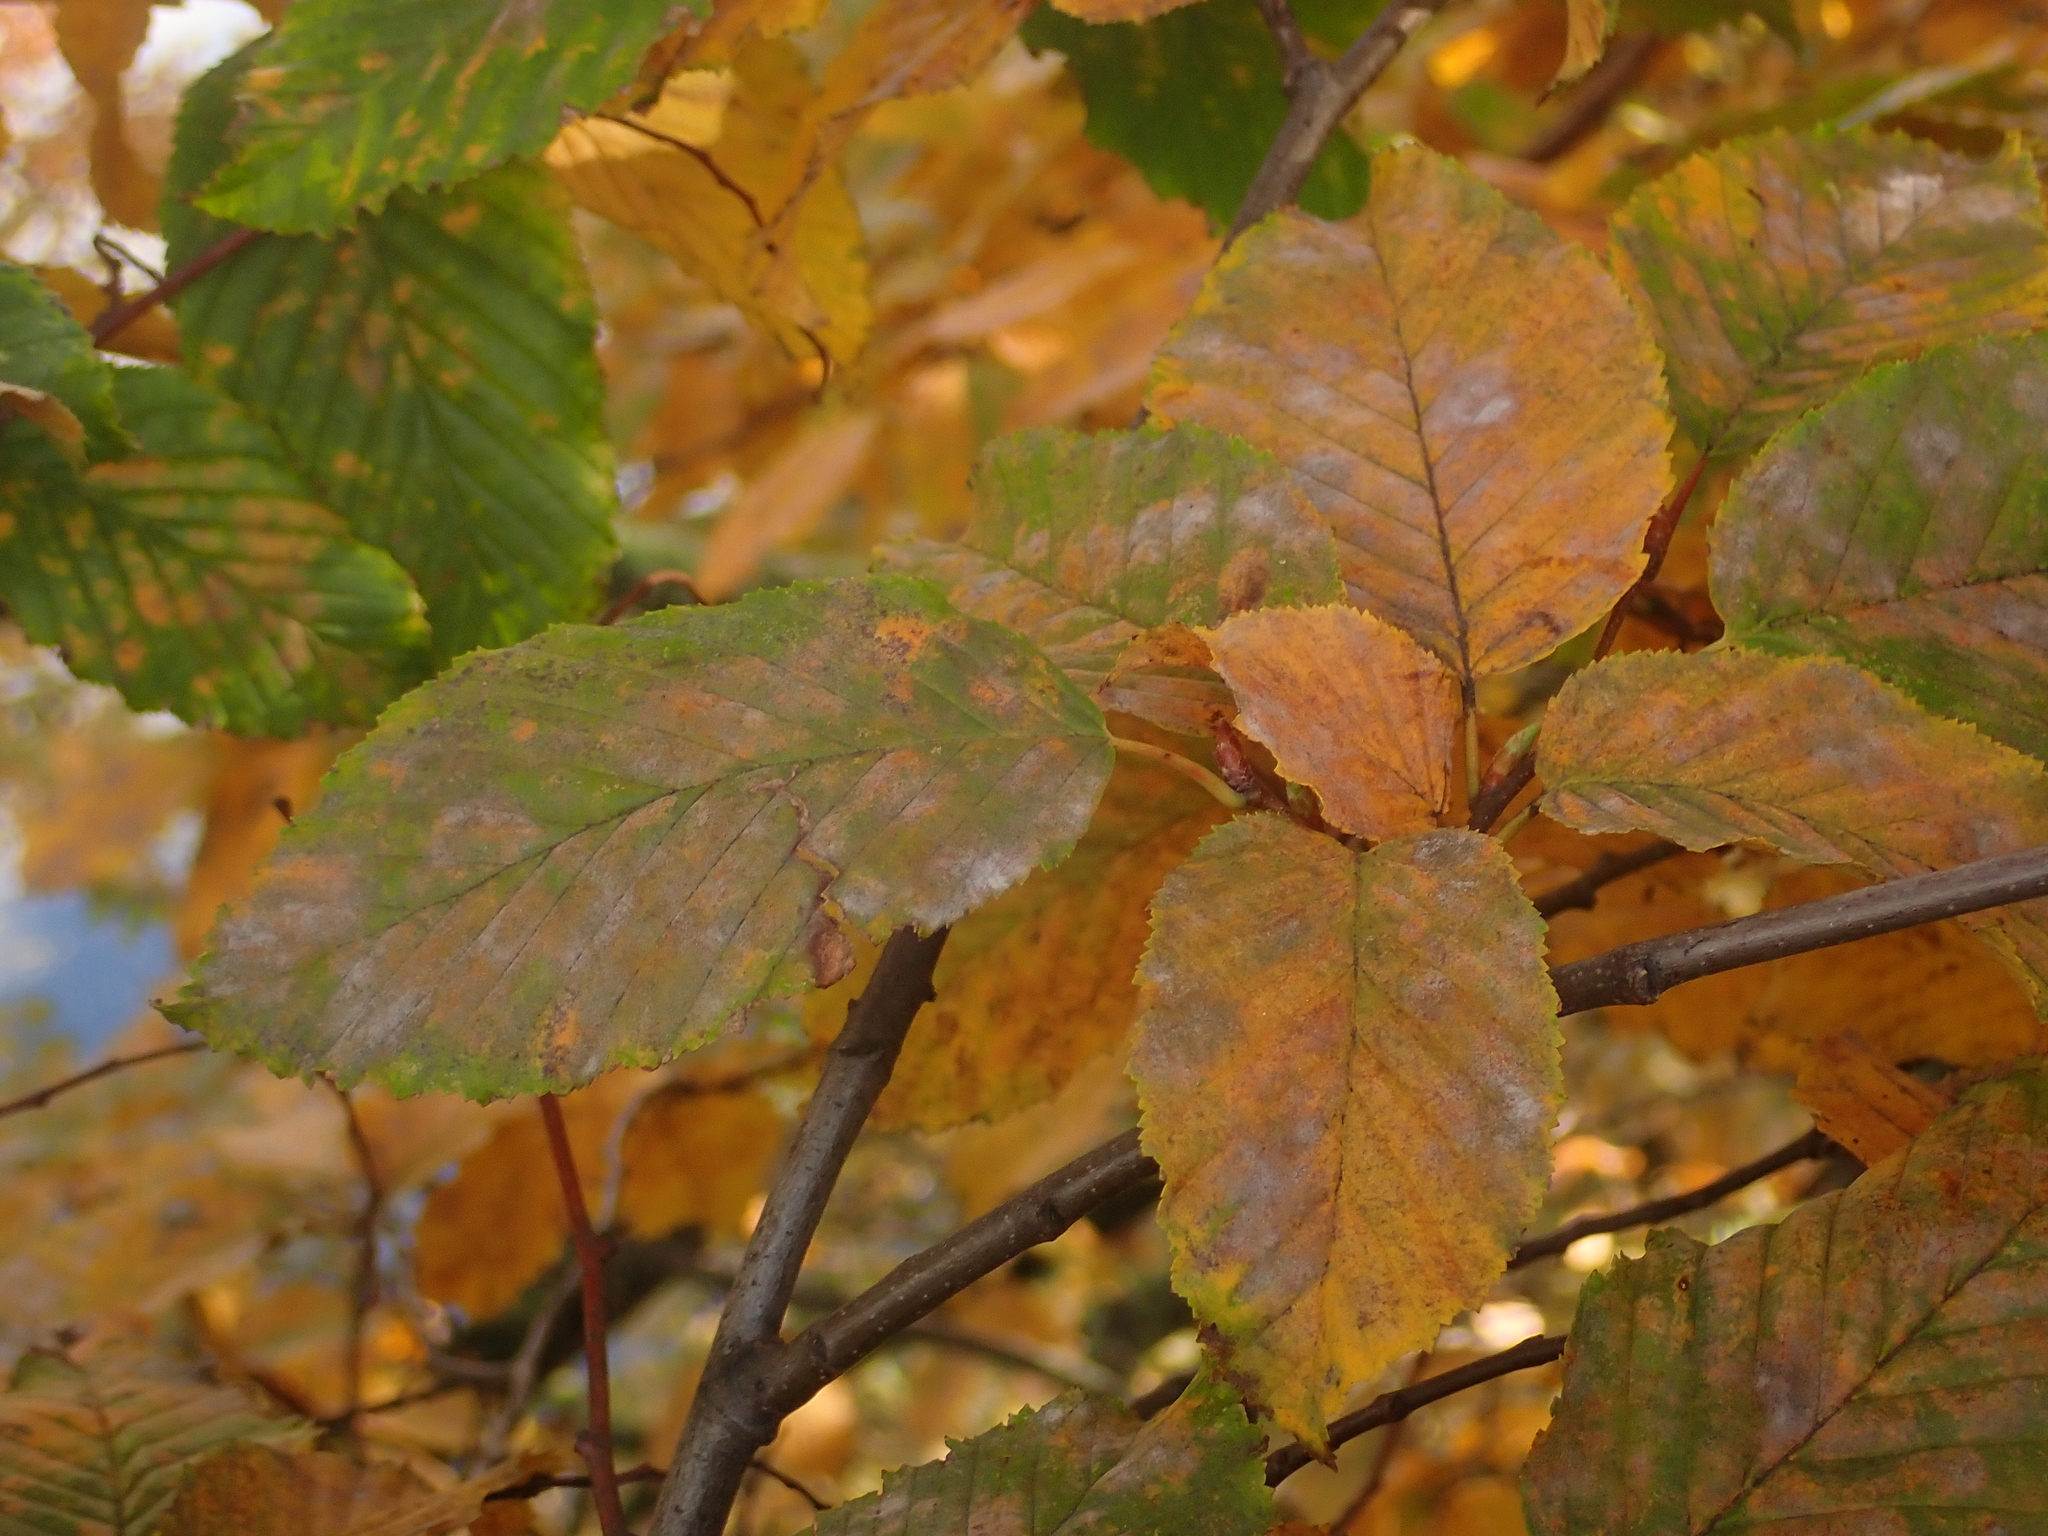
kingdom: Fungi
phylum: Ascomycota
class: Leotiomycetes
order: Helotiales
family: Erysiphaceae
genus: Erysiphe
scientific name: Erysiphe arcuata
